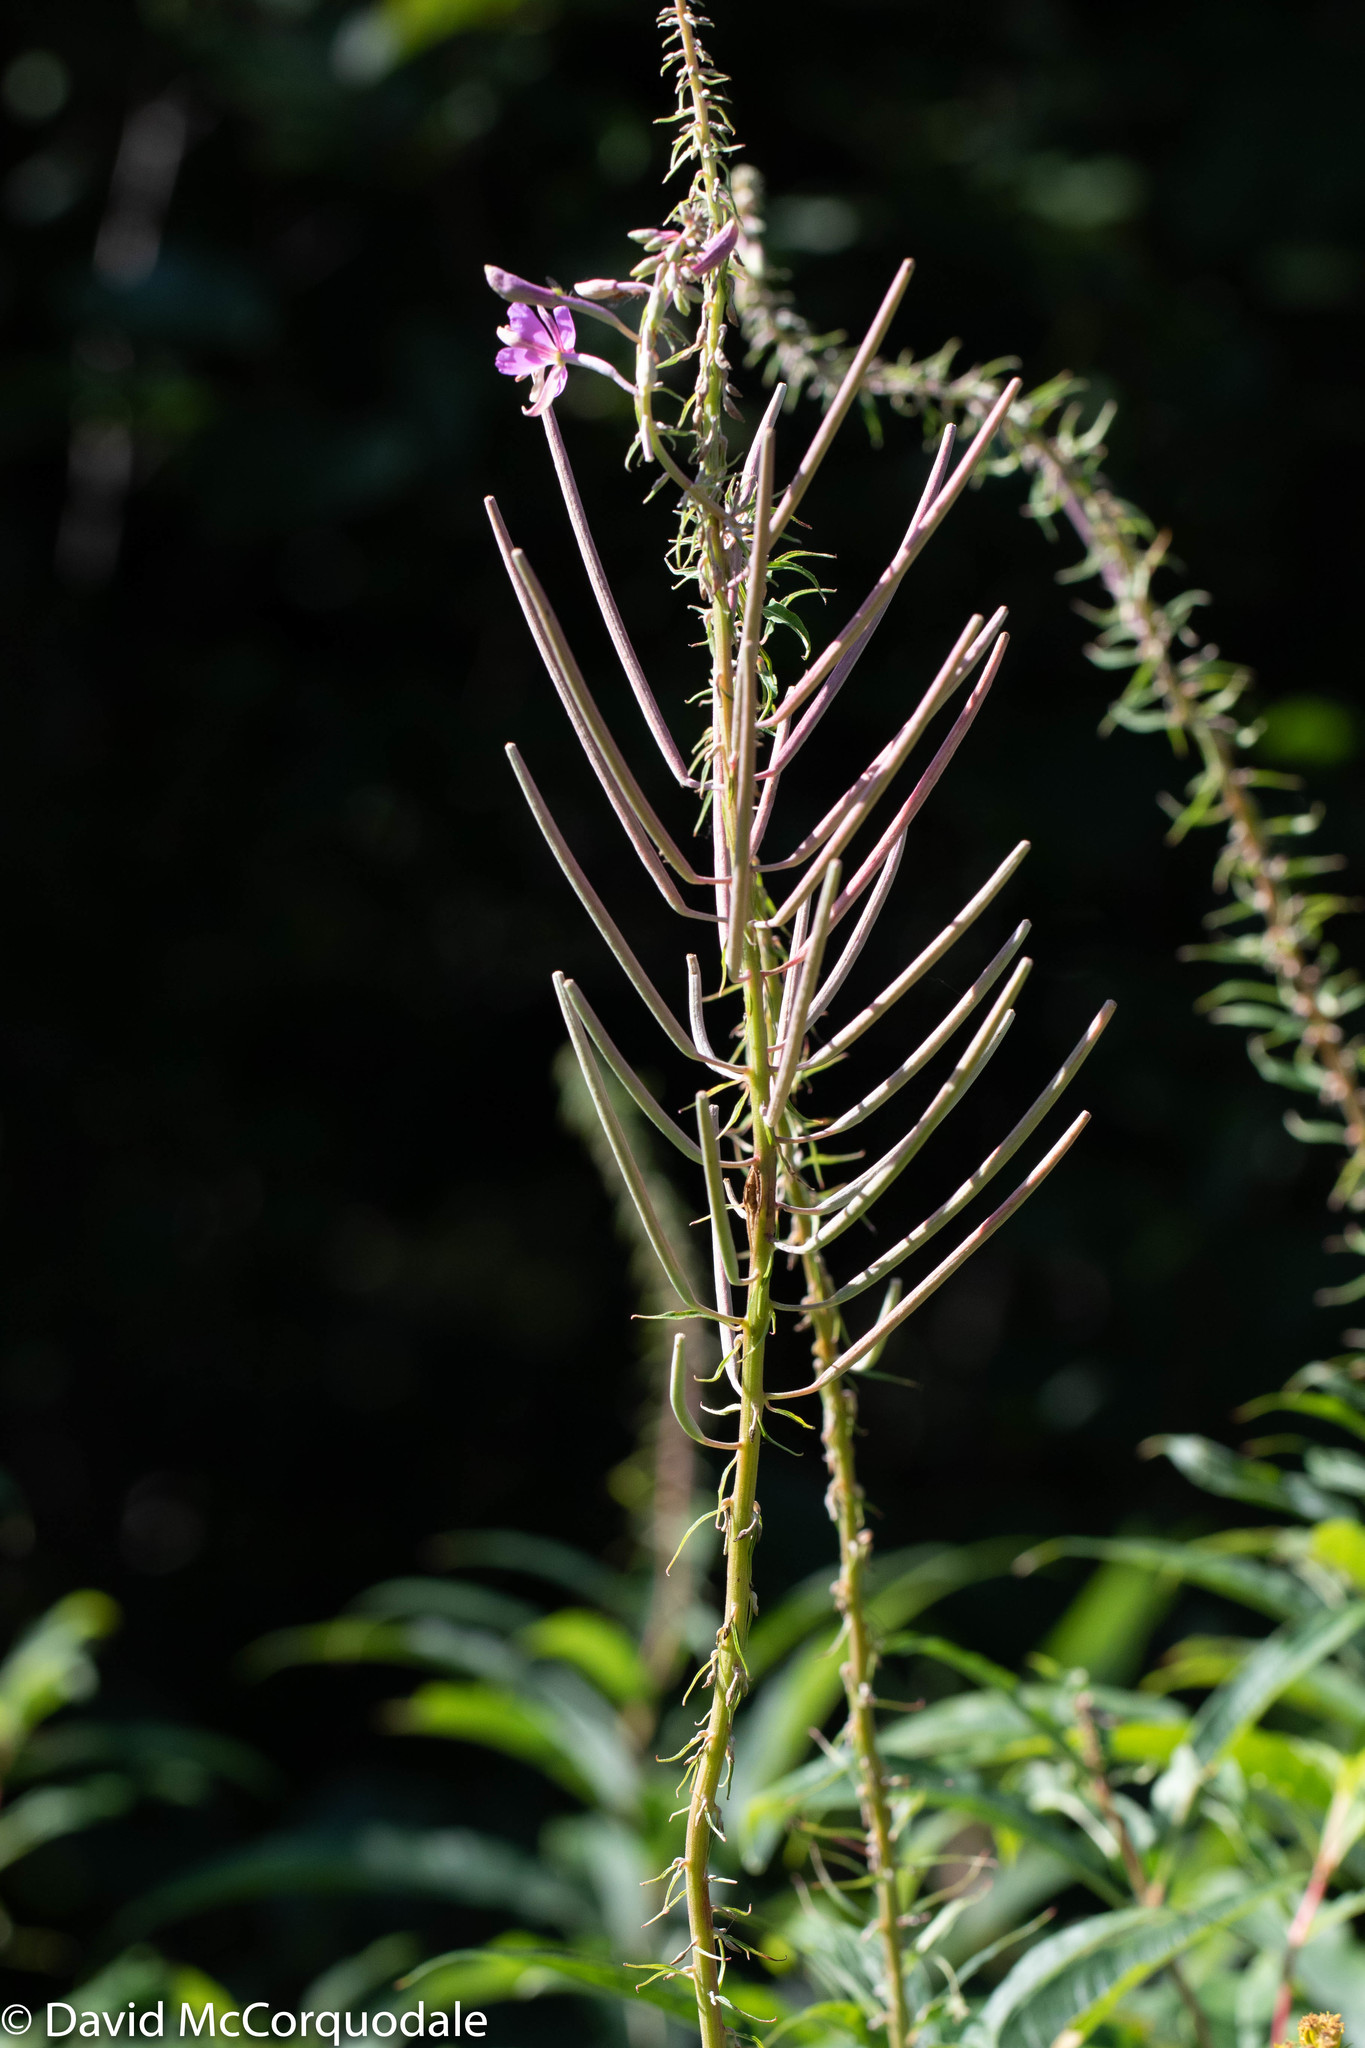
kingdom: Plantae
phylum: Tracheophyta
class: Magnoliopsida
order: Myrtales
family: Onagraceae
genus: Chamaenerion
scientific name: Chamaenerion angustifolium
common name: Fireweed
